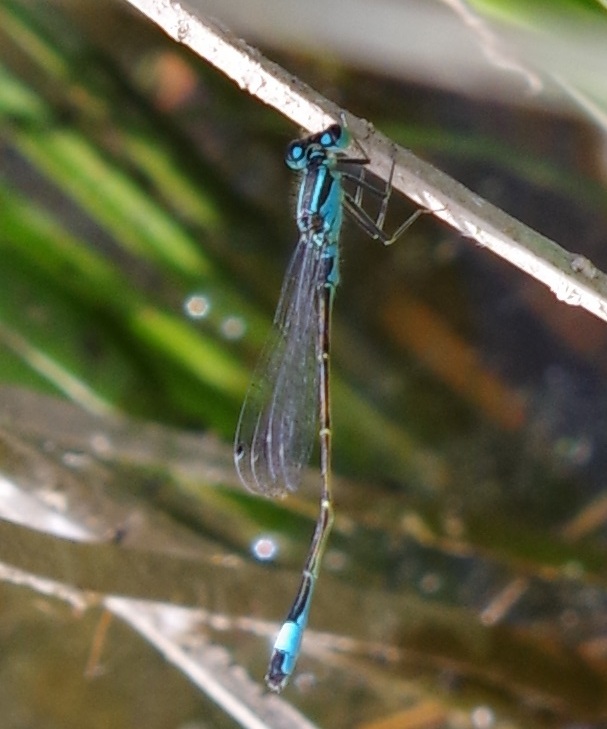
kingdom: Animalia
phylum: Arthropoda
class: Insecta
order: Odonata
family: Coenagrionidae
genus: Ischnura
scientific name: Ischnura elegans
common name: Blue-tailed damselfly
